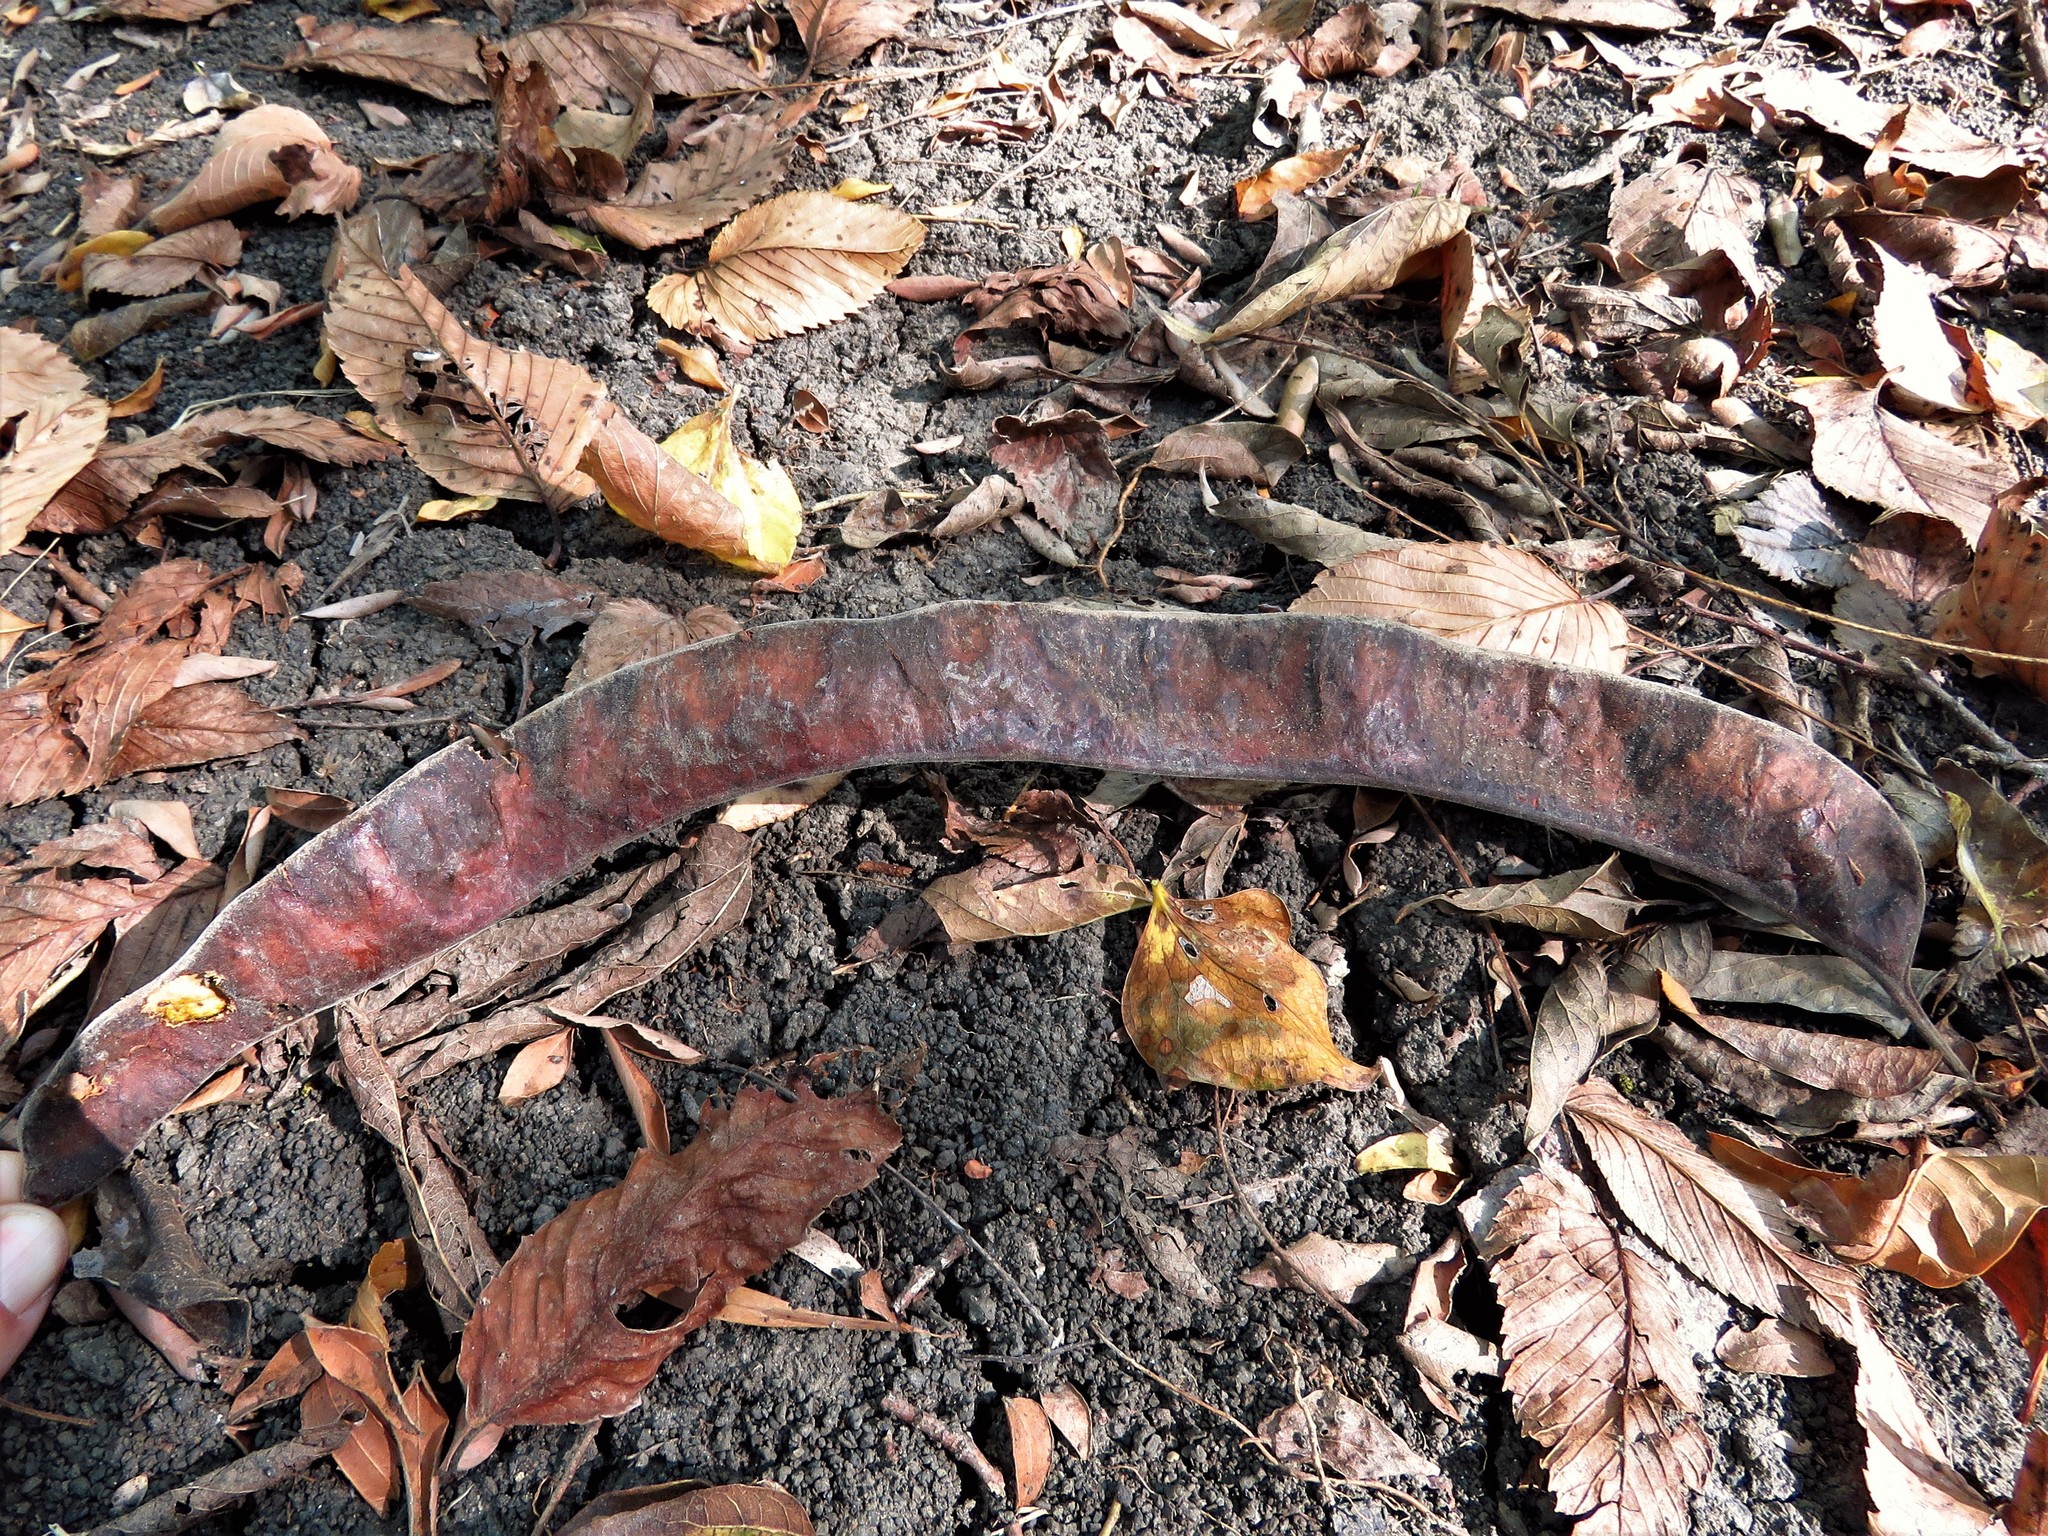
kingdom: Plantae
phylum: Tracheophyta
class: Magnoliopsida
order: Fabales
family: Fabaceae
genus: Gleditsia
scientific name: Gleditsia triacanthos
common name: Common honeylocust
